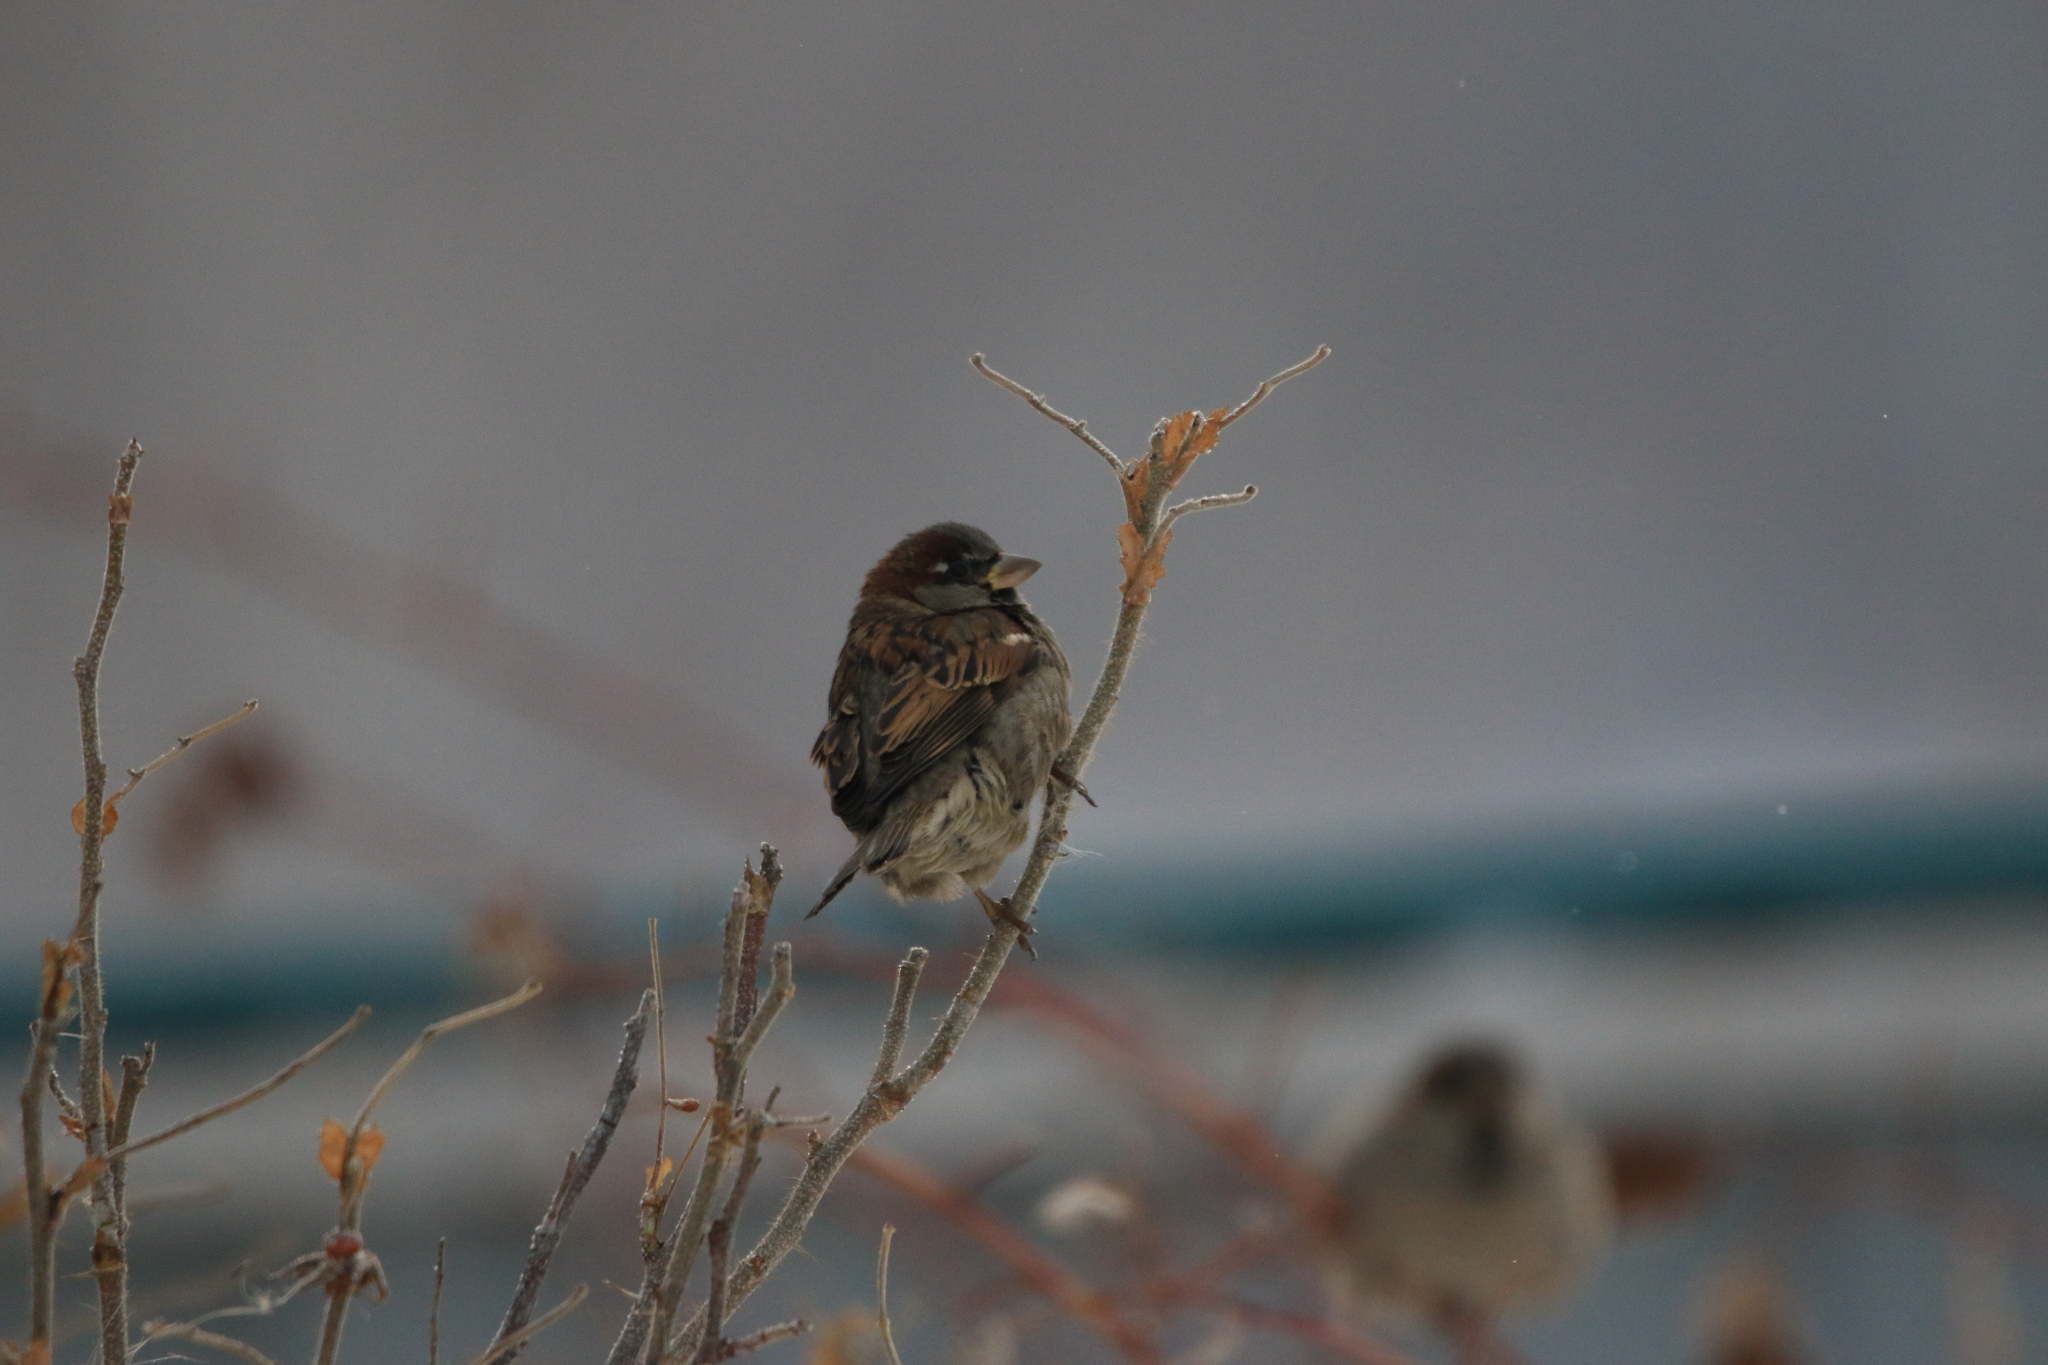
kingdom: Animalia
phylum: Chordata
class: Aves
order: Passeriformes
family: Passeridae
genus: Passer
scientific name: Passer domesticus
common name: House sparrow
